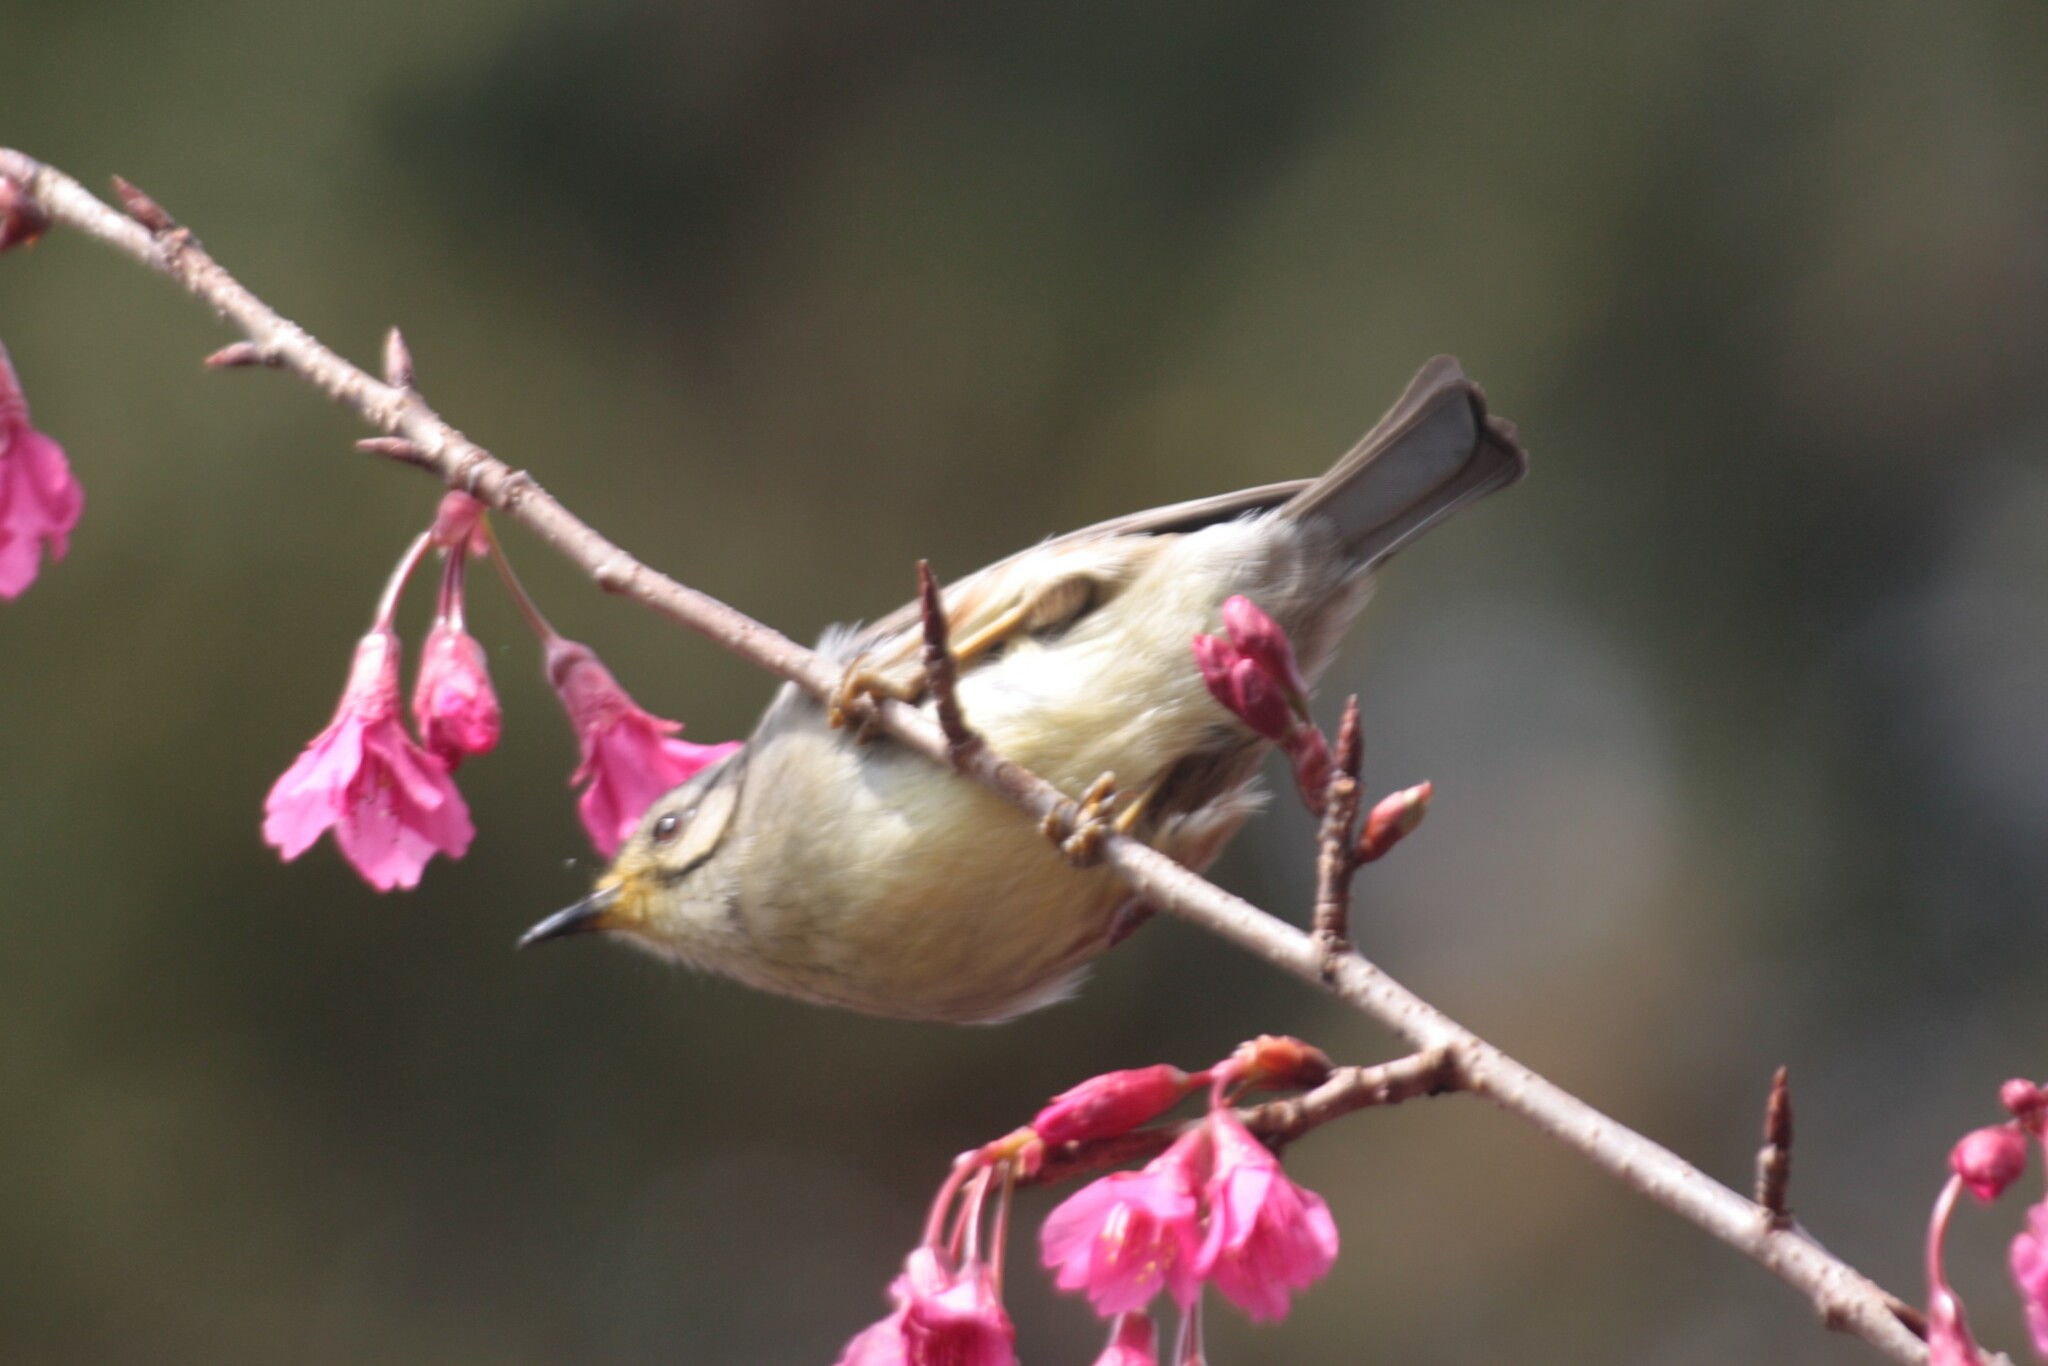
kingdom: Animalia
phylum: Chordata
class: Aves
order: Passeriformes
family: Zosteropidae
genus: Yuhina
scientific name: Yuhina brunneiceps
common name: Taiwan yuhina
